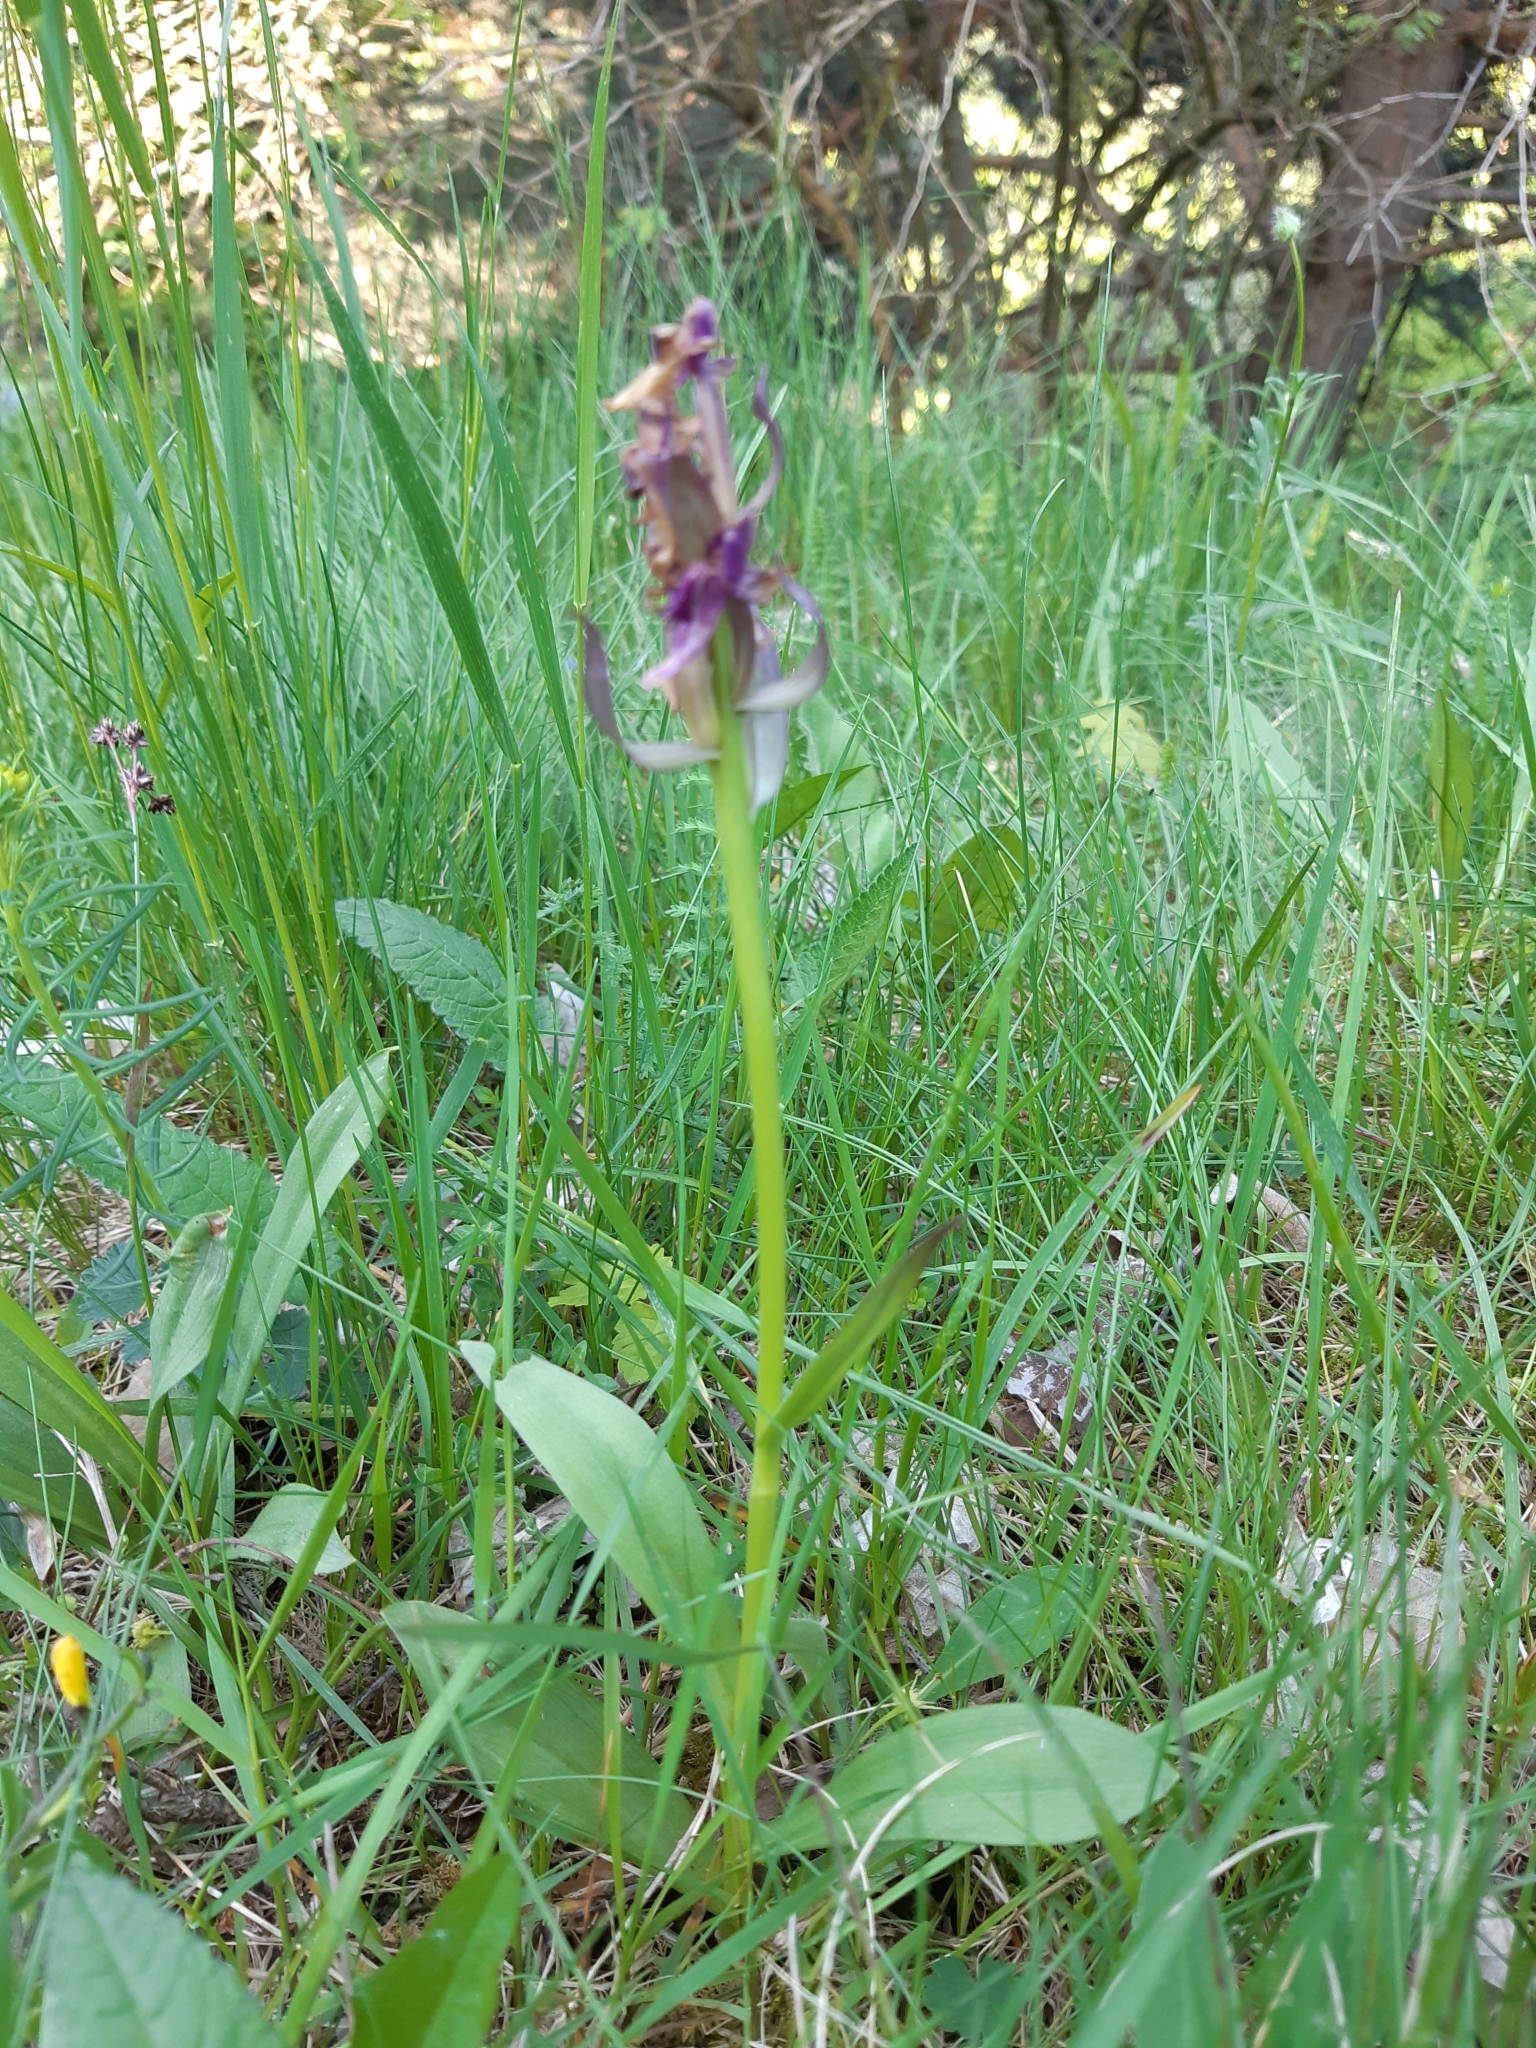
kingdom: Plantae
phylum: Tracheophyta
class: Liliopsida
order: Asparagales
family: Orchidaceae
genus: Dactylorhiza
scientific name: Dactylorhiza sambucina
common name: Elder-flowered orchid
